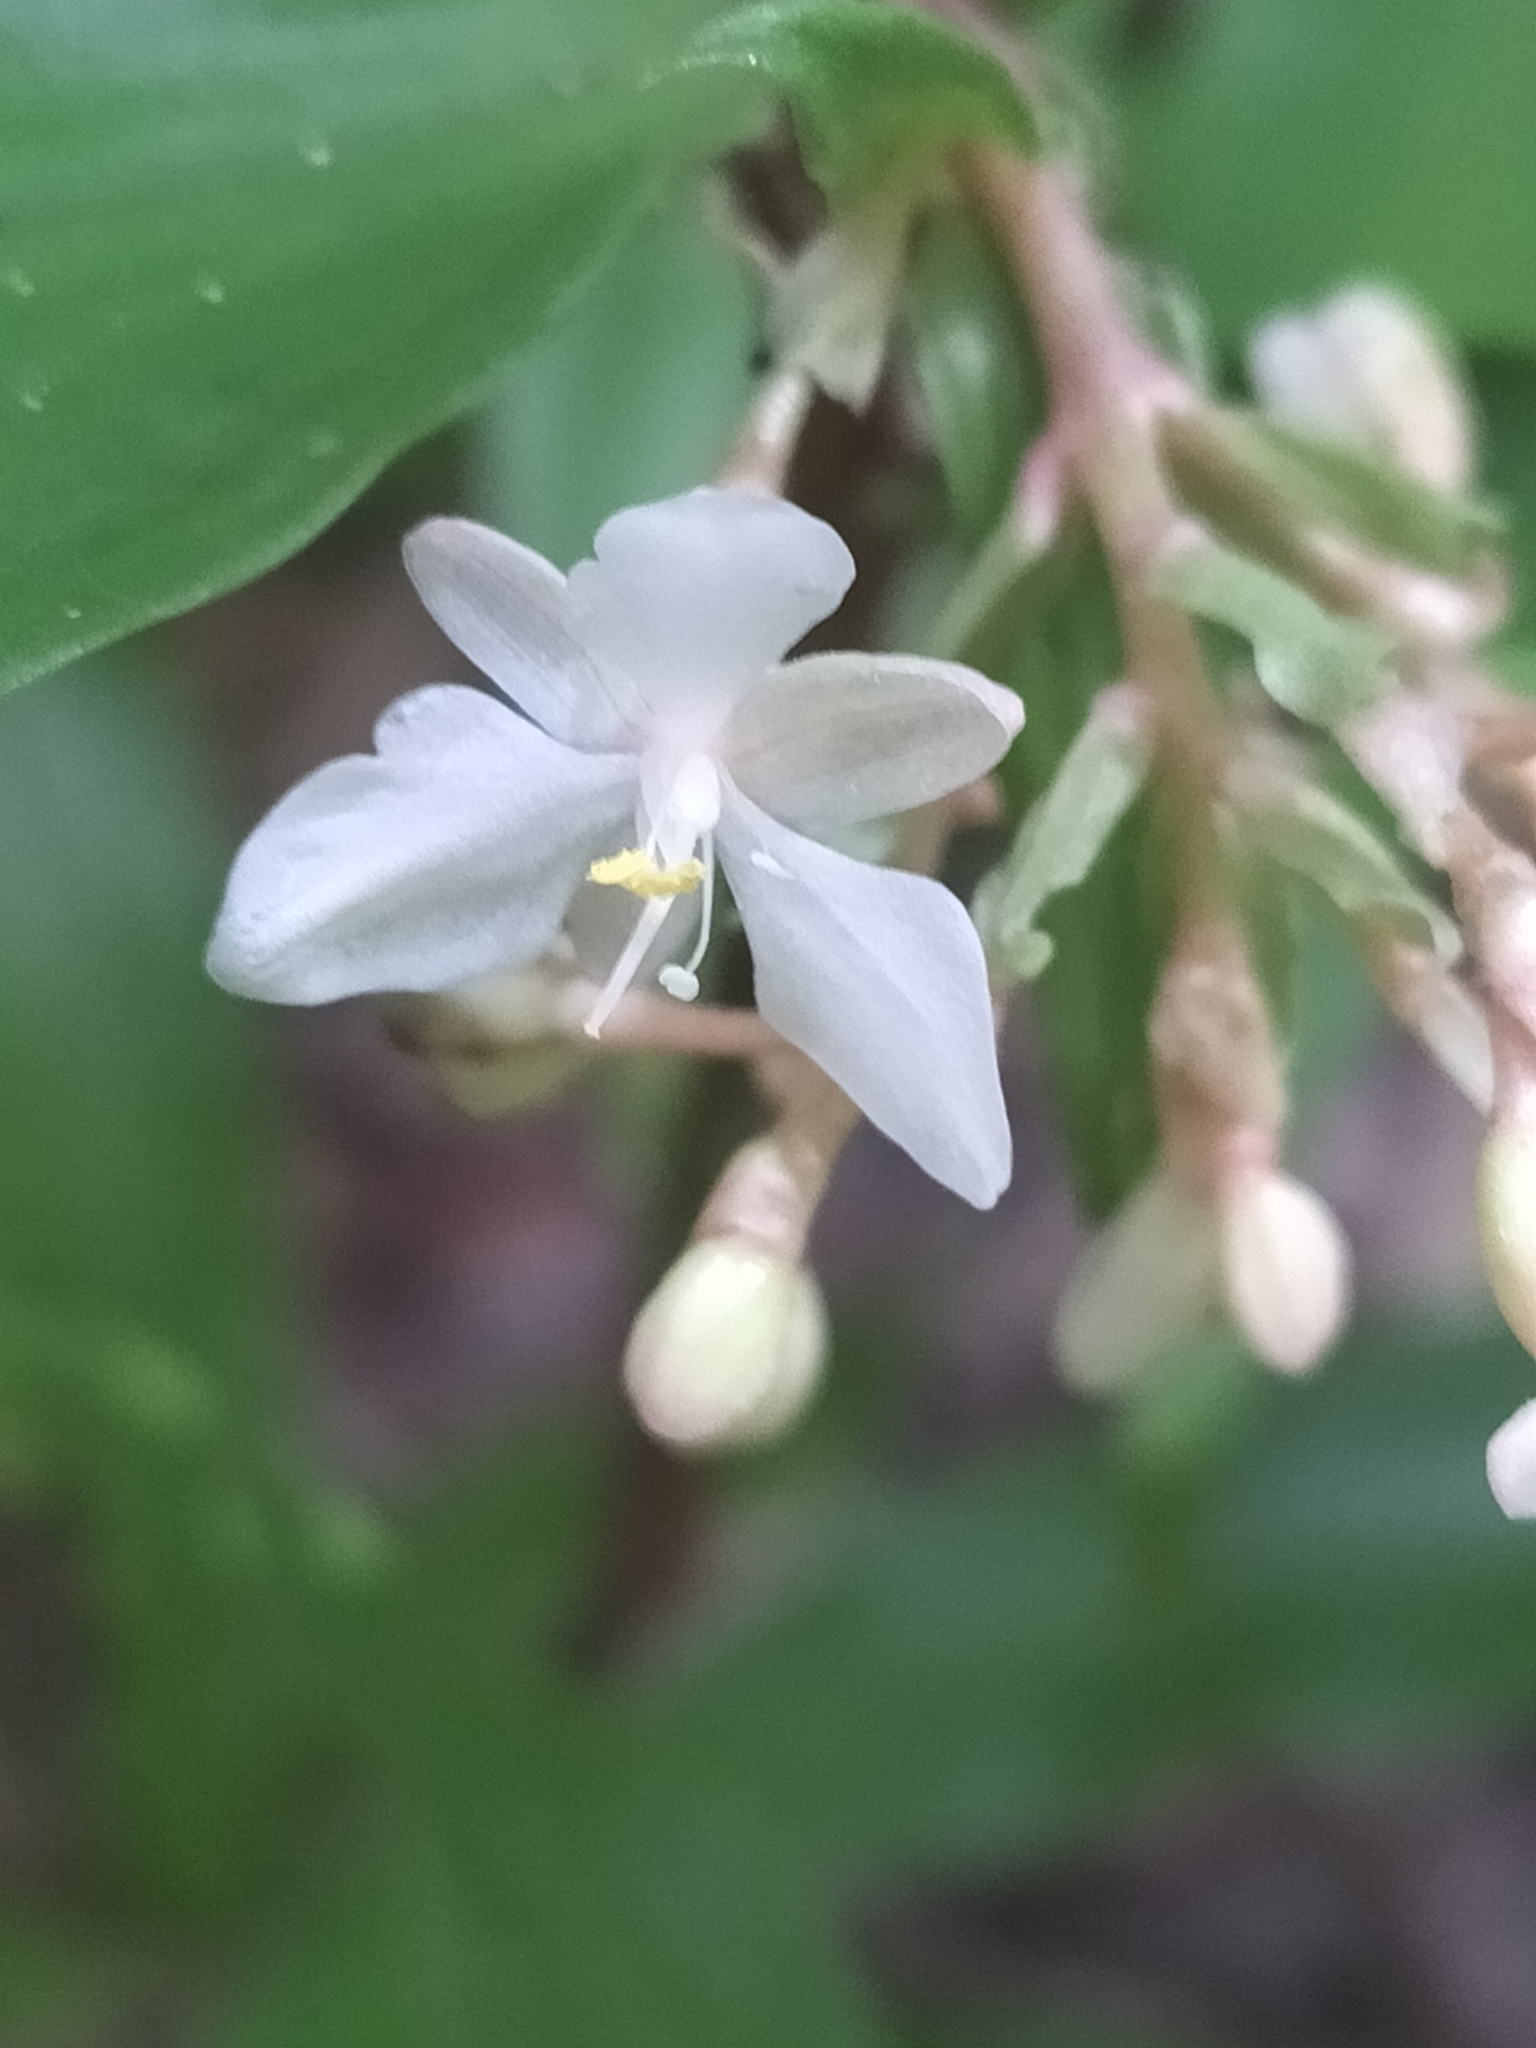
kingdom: Plantae
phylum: Tracheophyta
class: Liliopsida
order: Commelinales
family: Commelinaceae
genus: Pollia
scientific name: Pollia crispata
